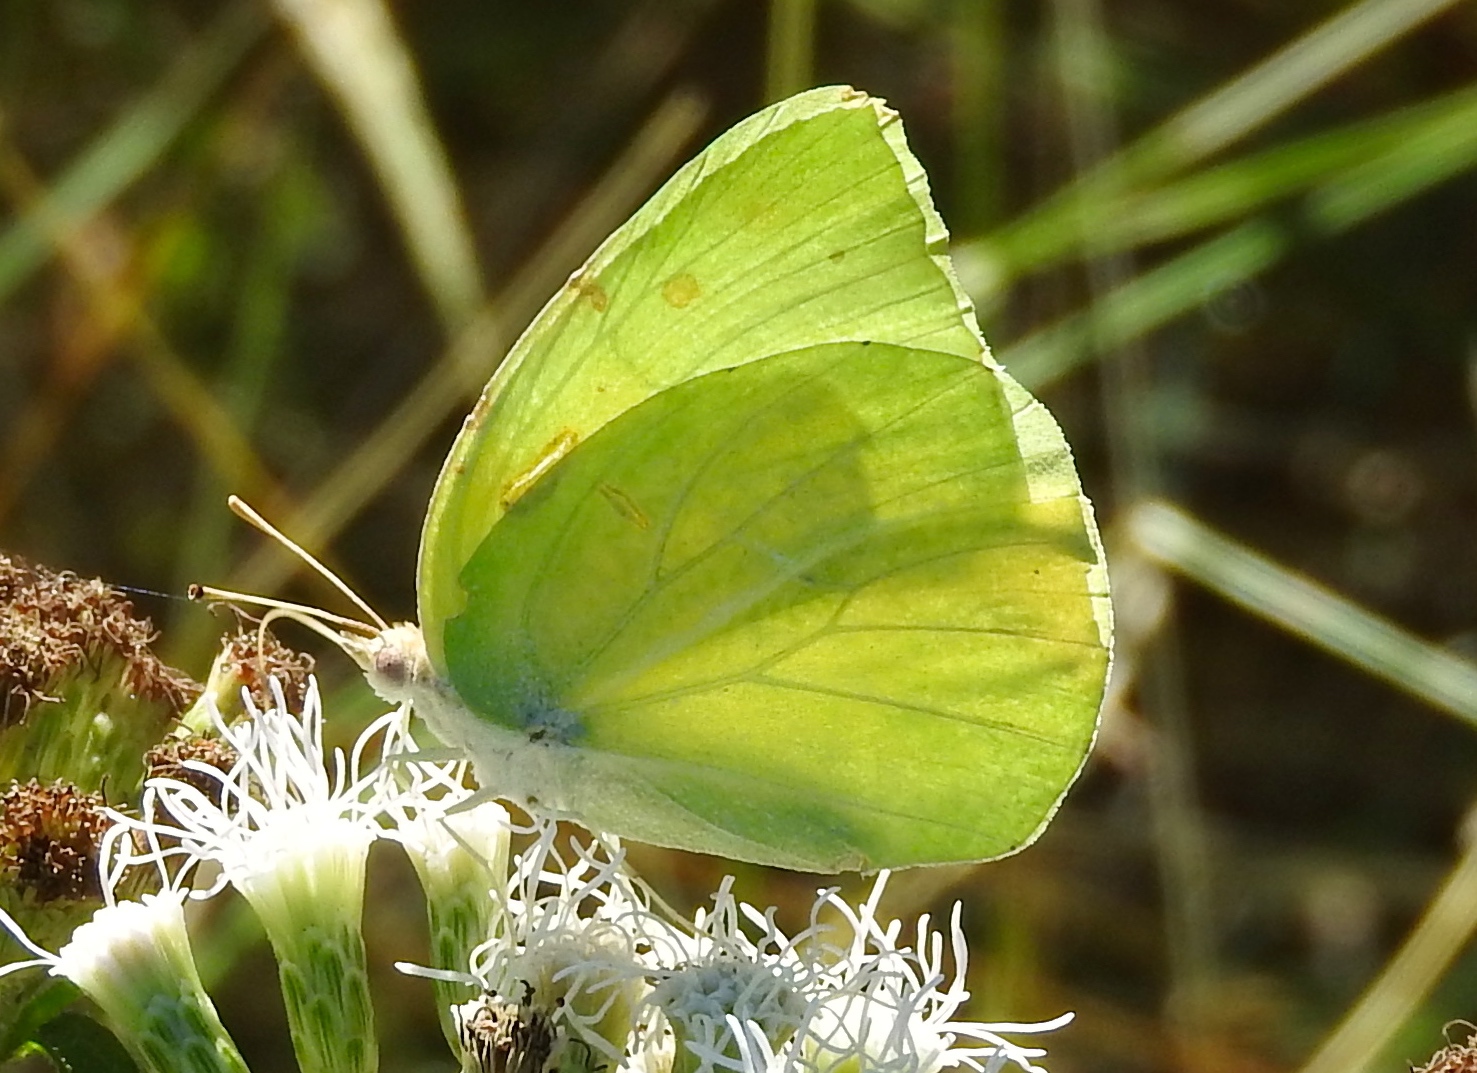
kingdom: Animalia
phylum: Arthropoda
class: Insecta
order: Lepidoptera
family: Pieridae
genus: Kricogonia
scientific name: Kricogonia lyside
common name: Guayacan sulphur,
